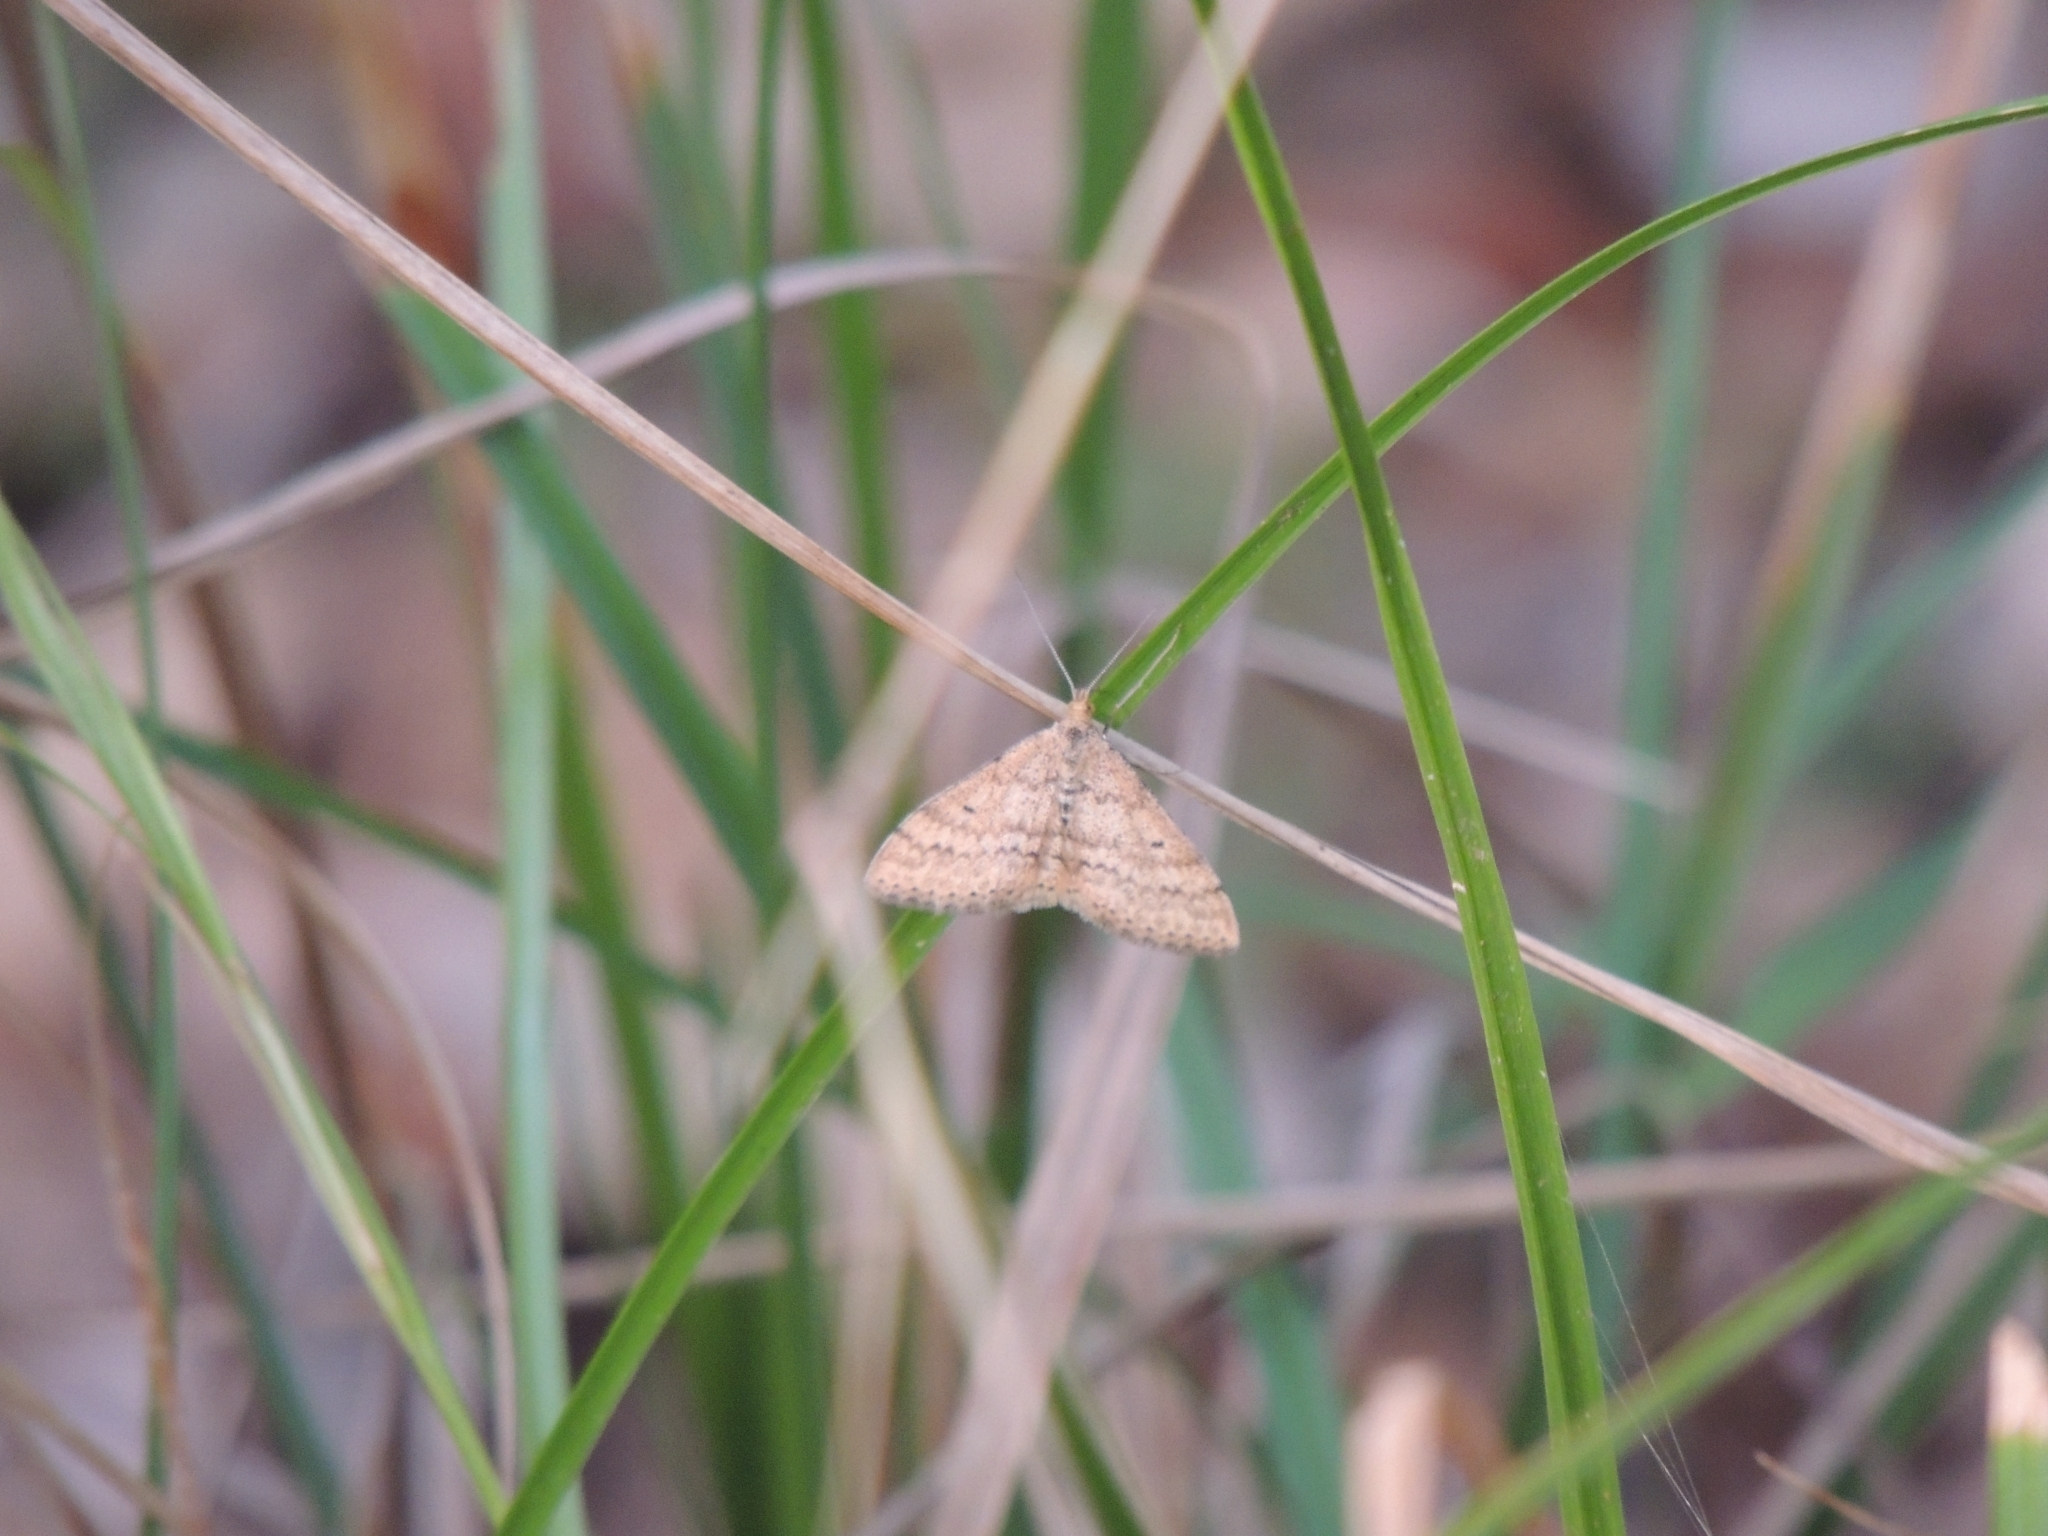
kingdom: Animalia
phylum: Arthropoda
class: Insecta
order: Lepidoptera
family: Geometridae
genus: Scopula
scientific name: Scopula rubraria
